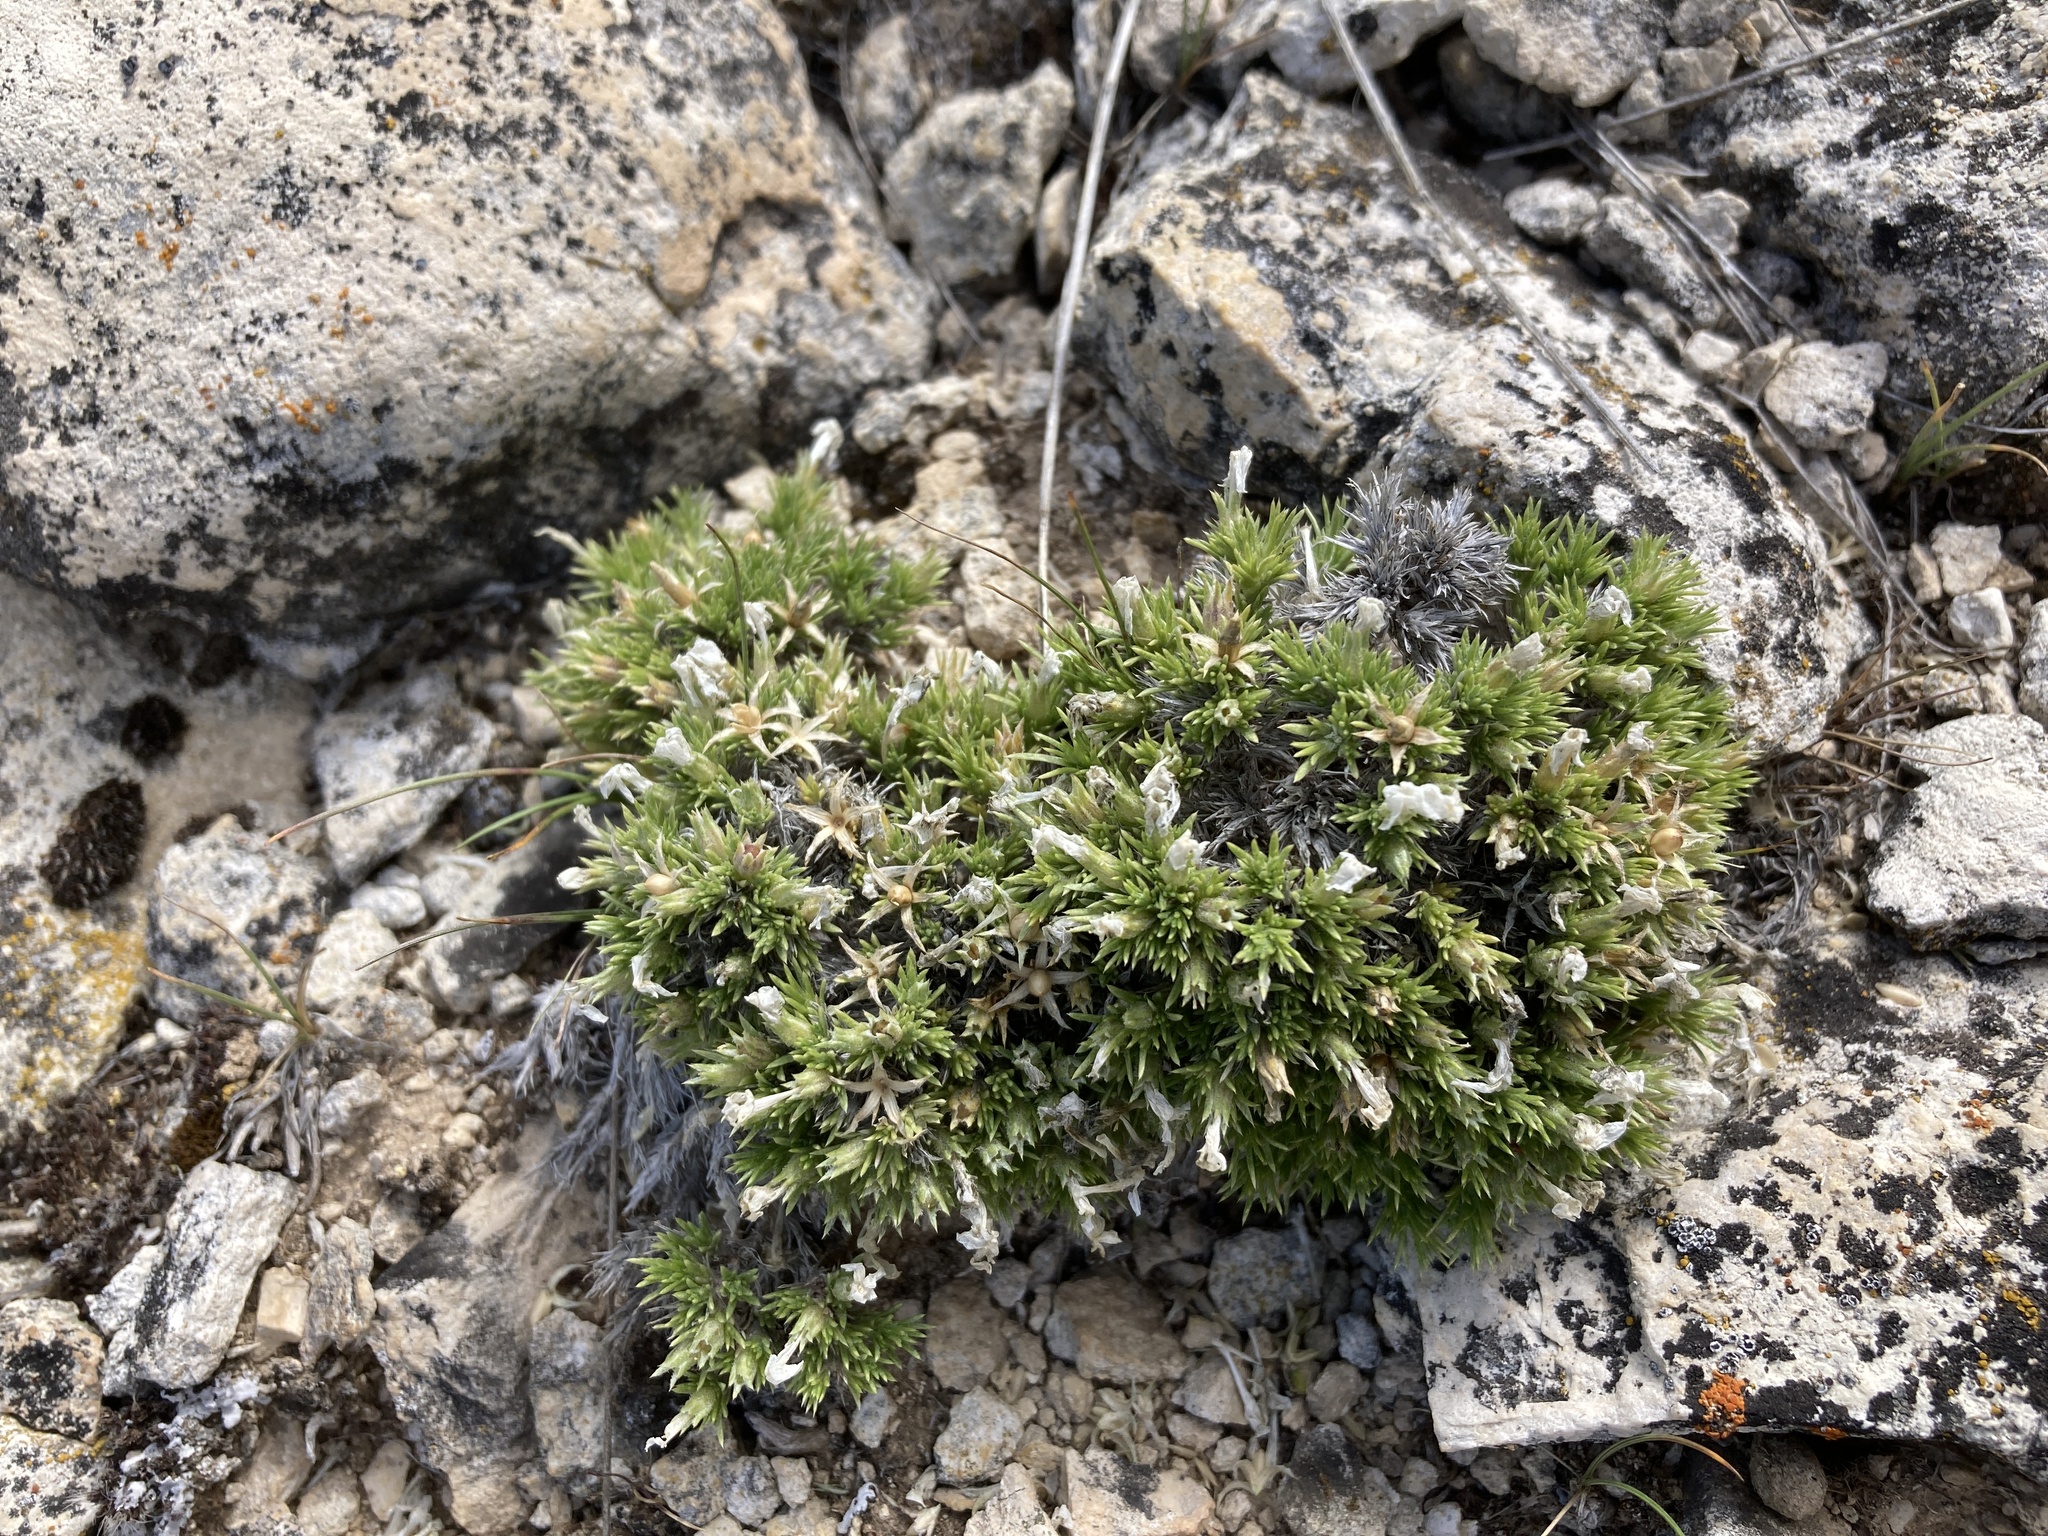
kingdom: Plantae
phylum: Tracheophyta
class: Magnoliopsida
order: Ericales
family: Polemoniaceae
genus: Phlox
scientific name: Phlox hoodii
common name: Moss phlox
